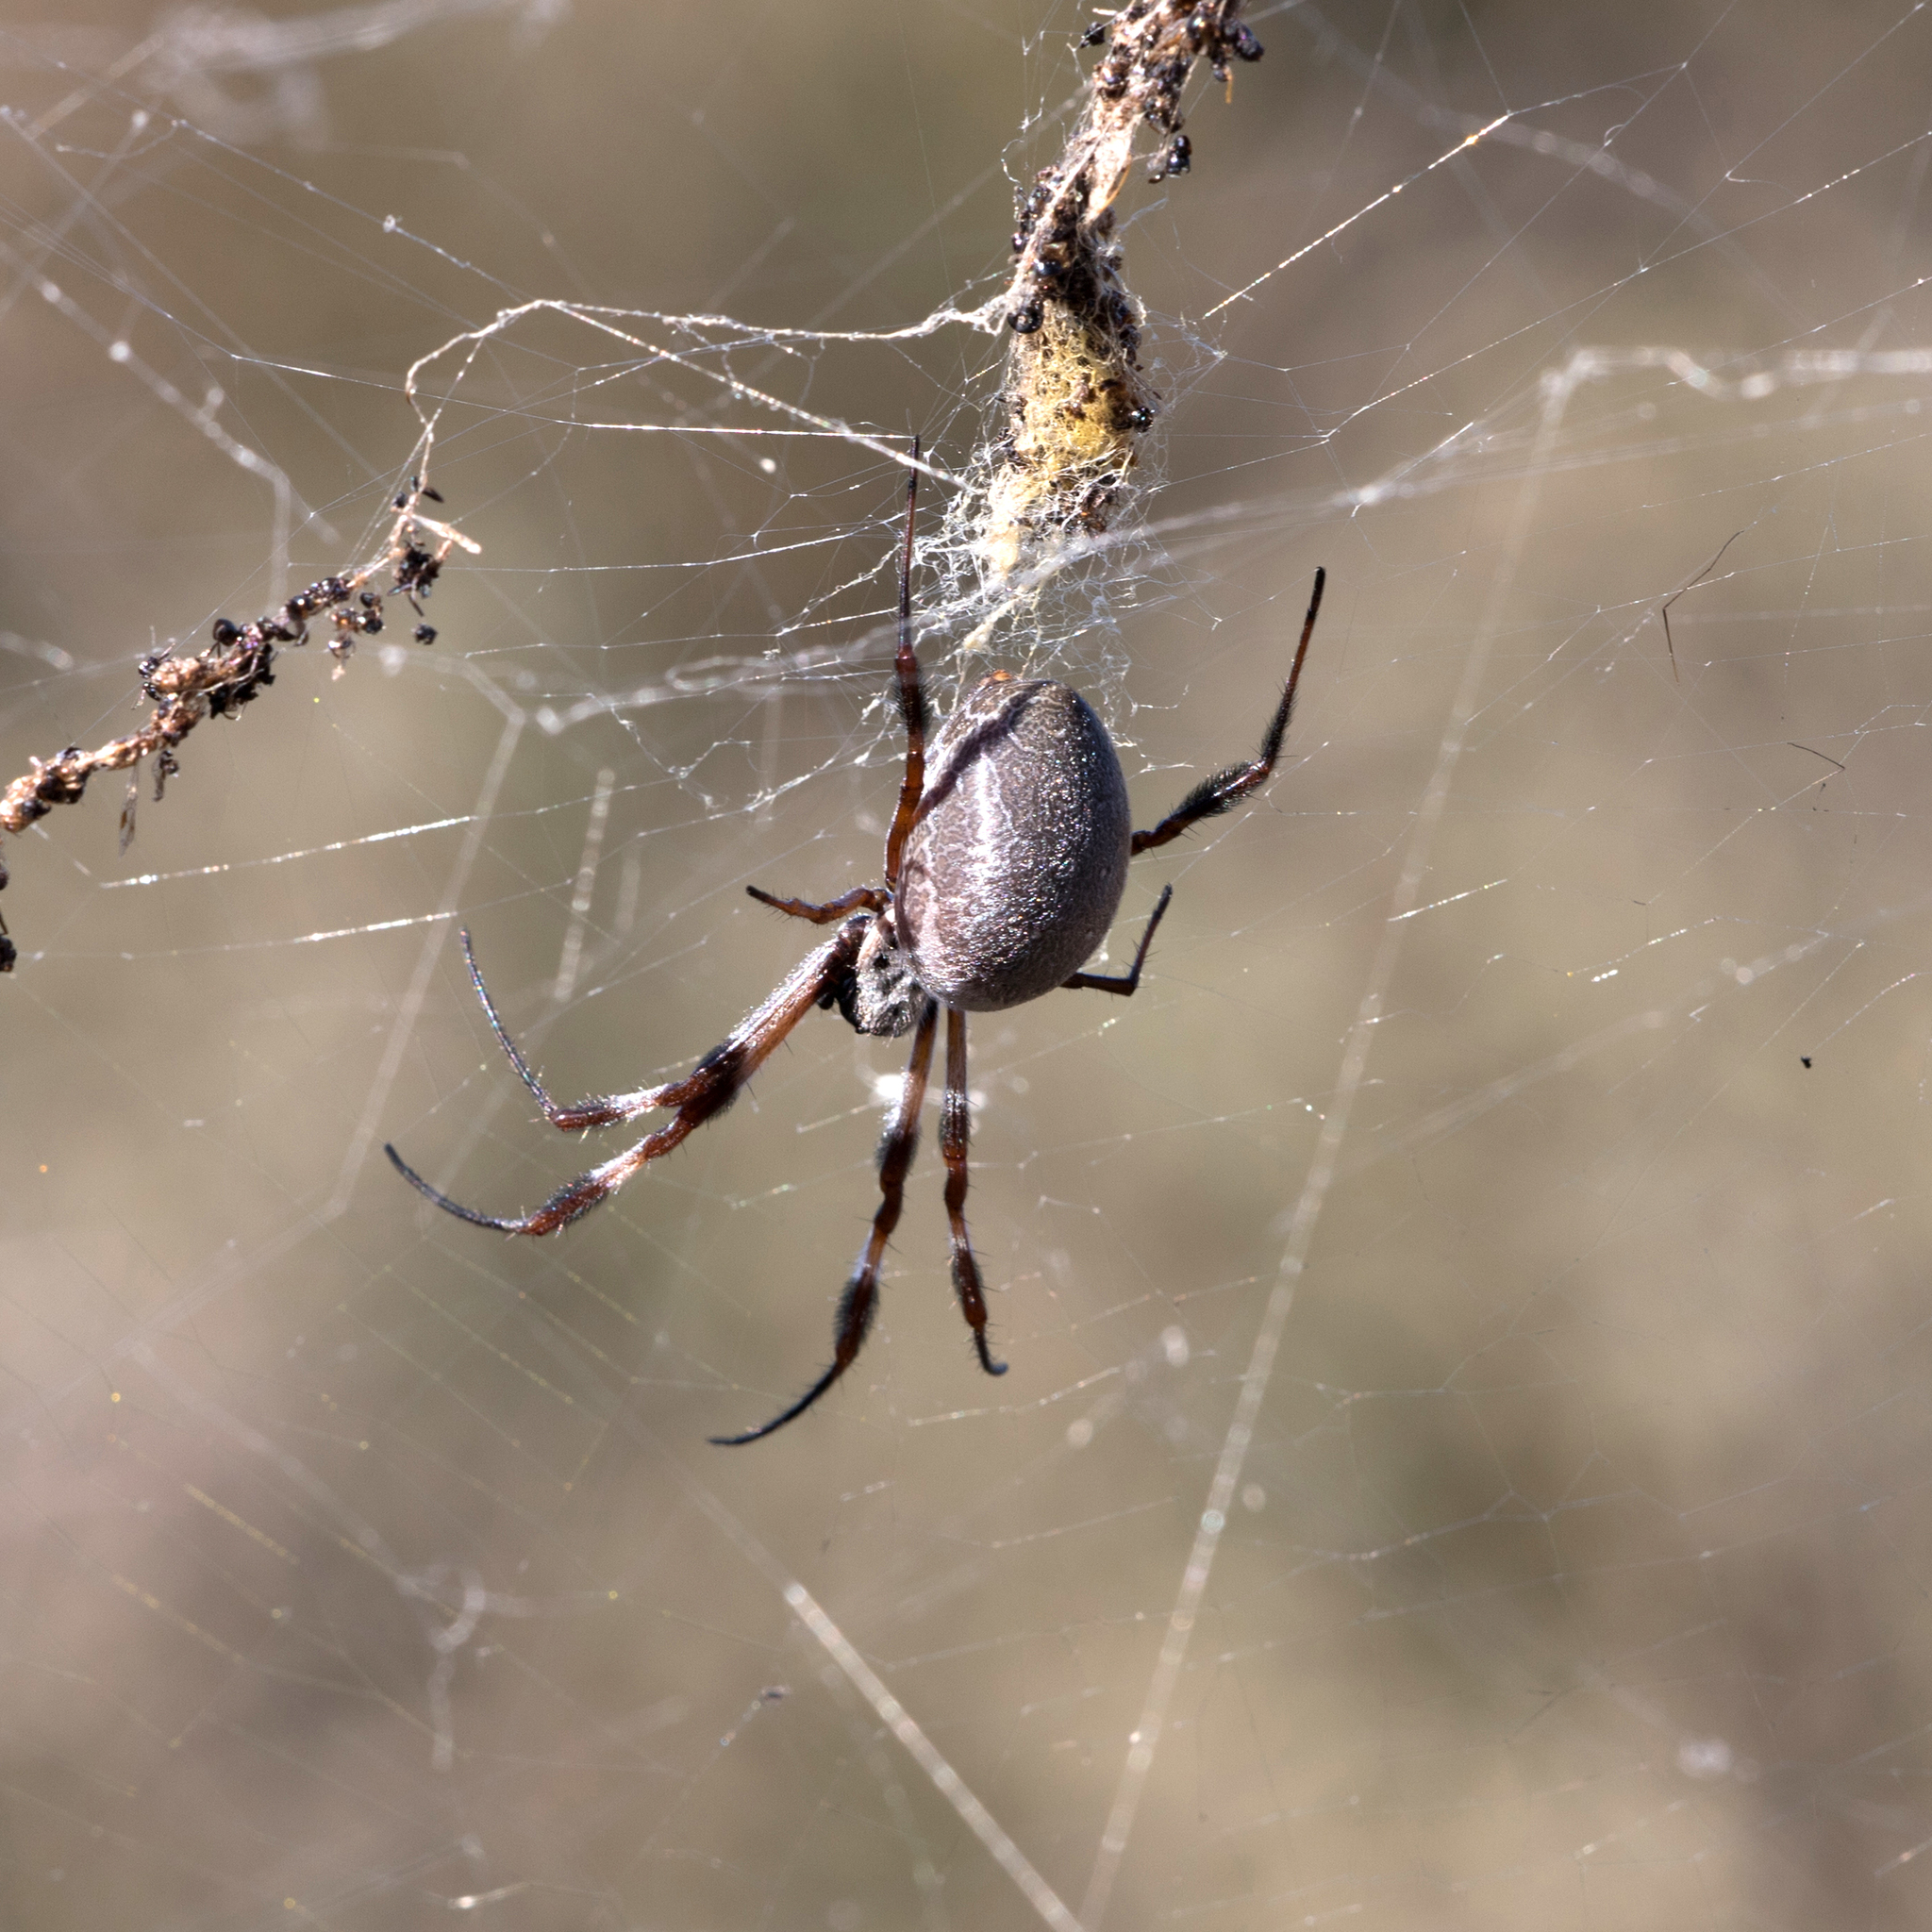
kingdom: Animalia
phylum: Arthropoda
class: Arachnida
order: Araneae
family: Araneidae
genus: Trichonephila
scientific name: Trichonephila edulis
